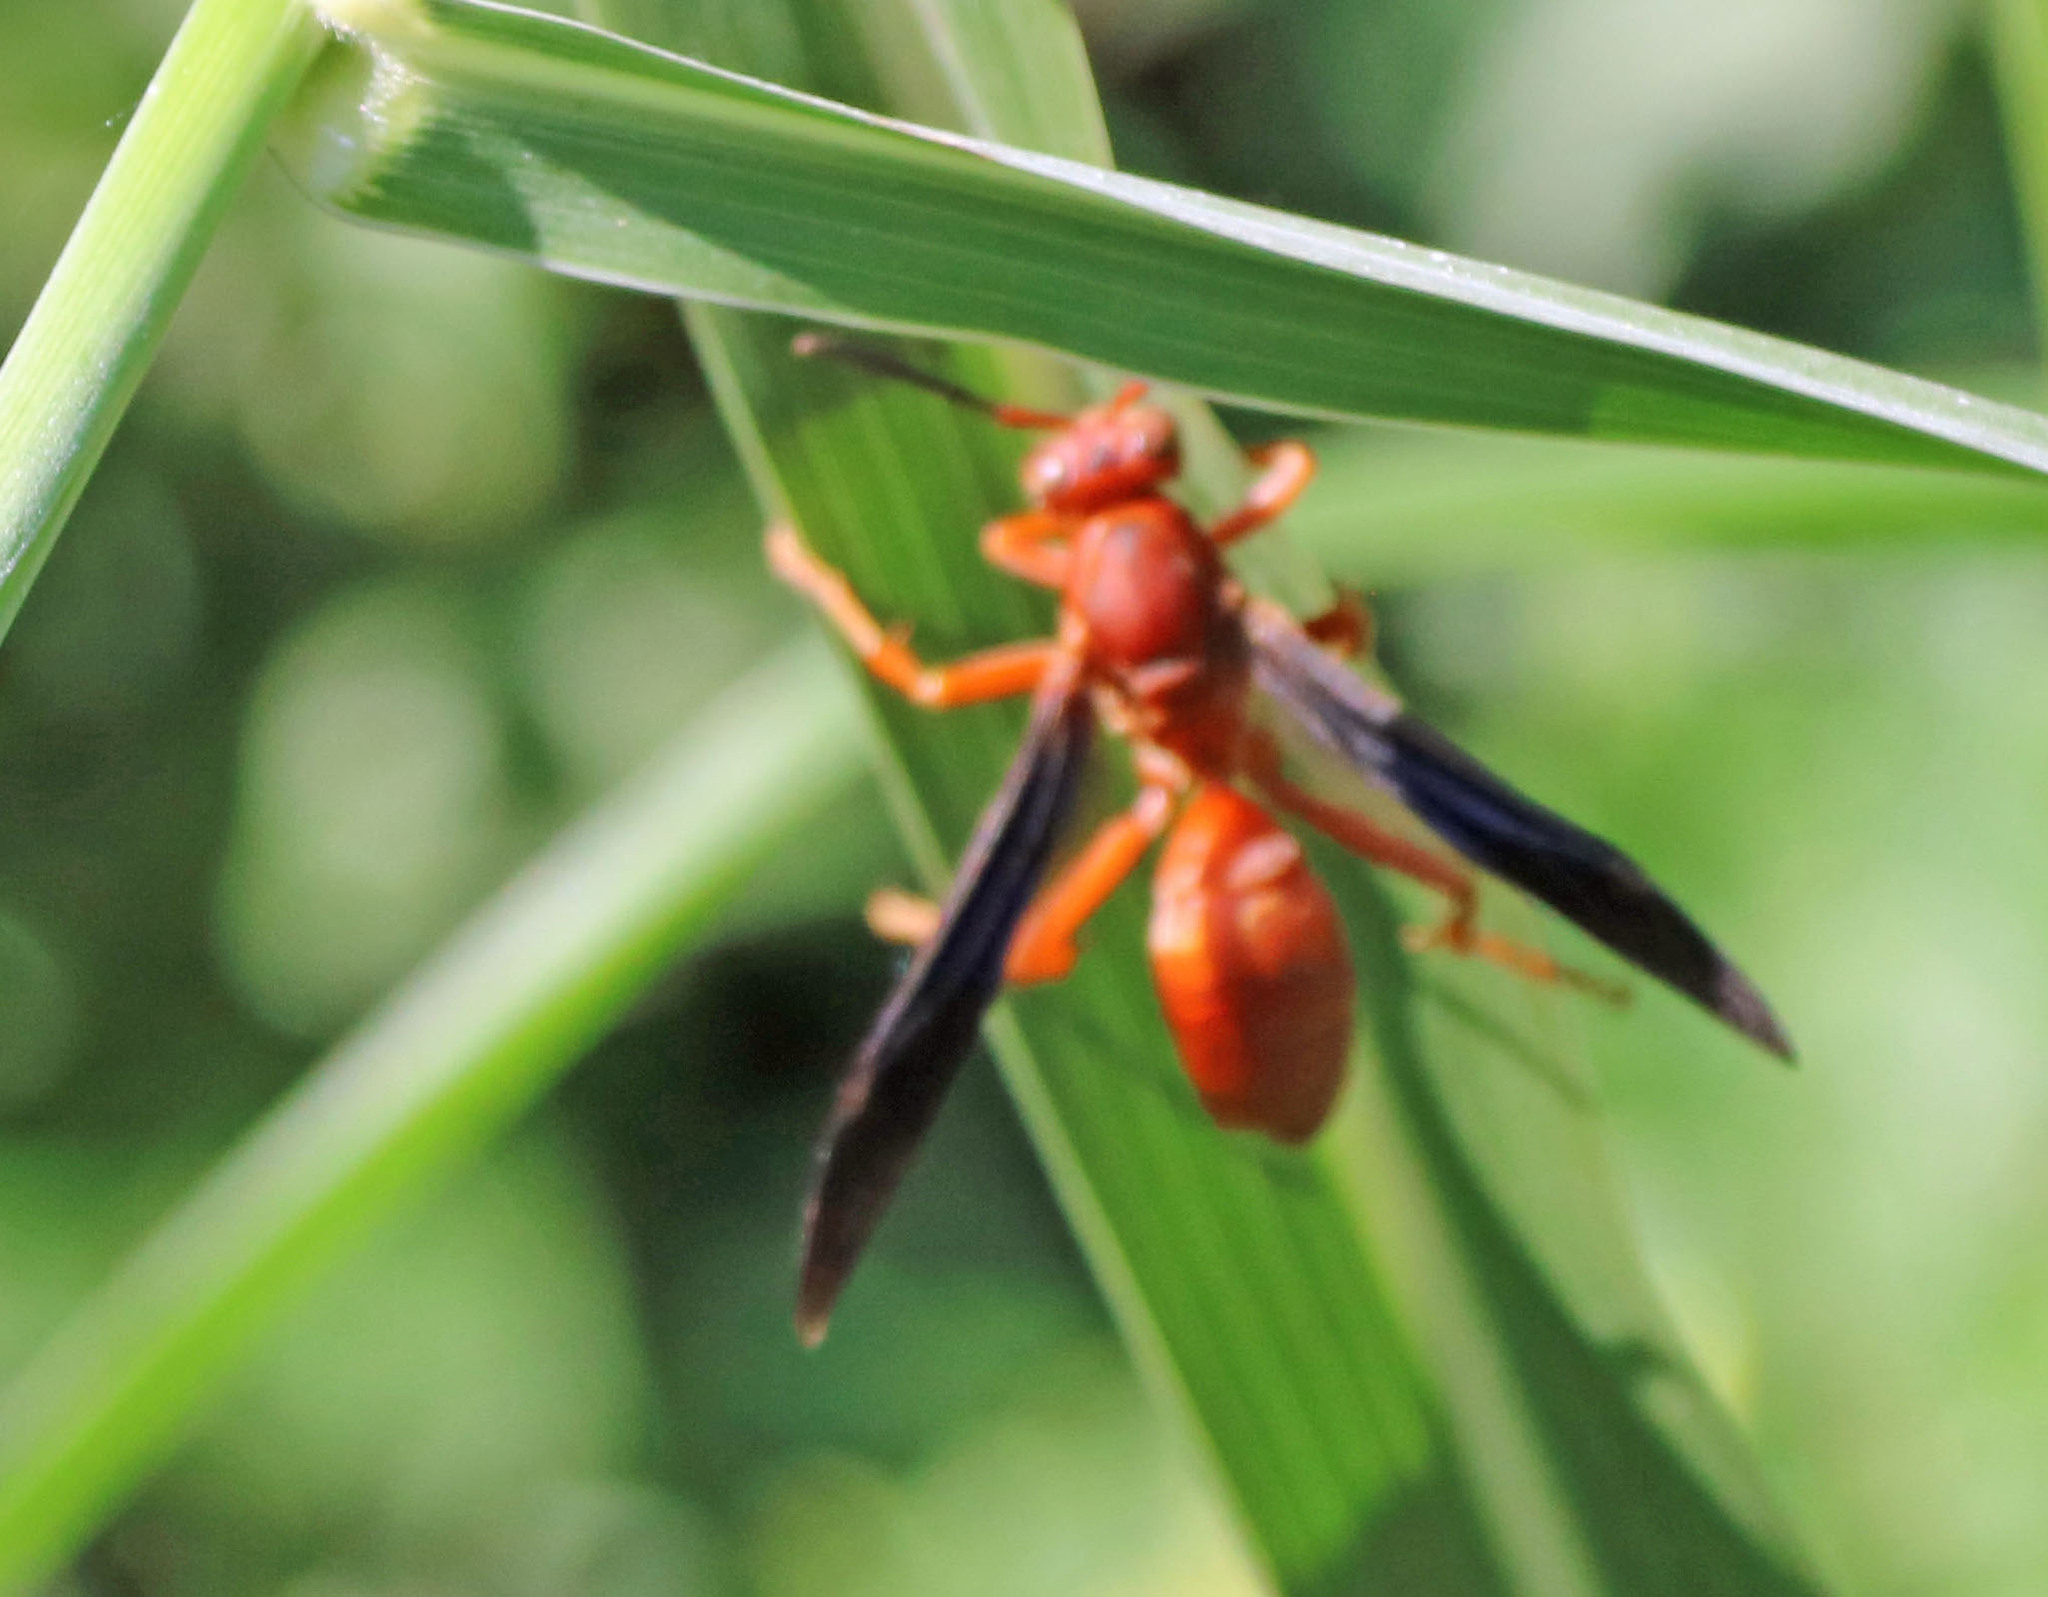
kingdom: Animalia
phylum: Arthropoda
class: Insecta
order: Hymenoptera
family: Eumenidae
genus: Polistes
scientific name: Polistes carolina
